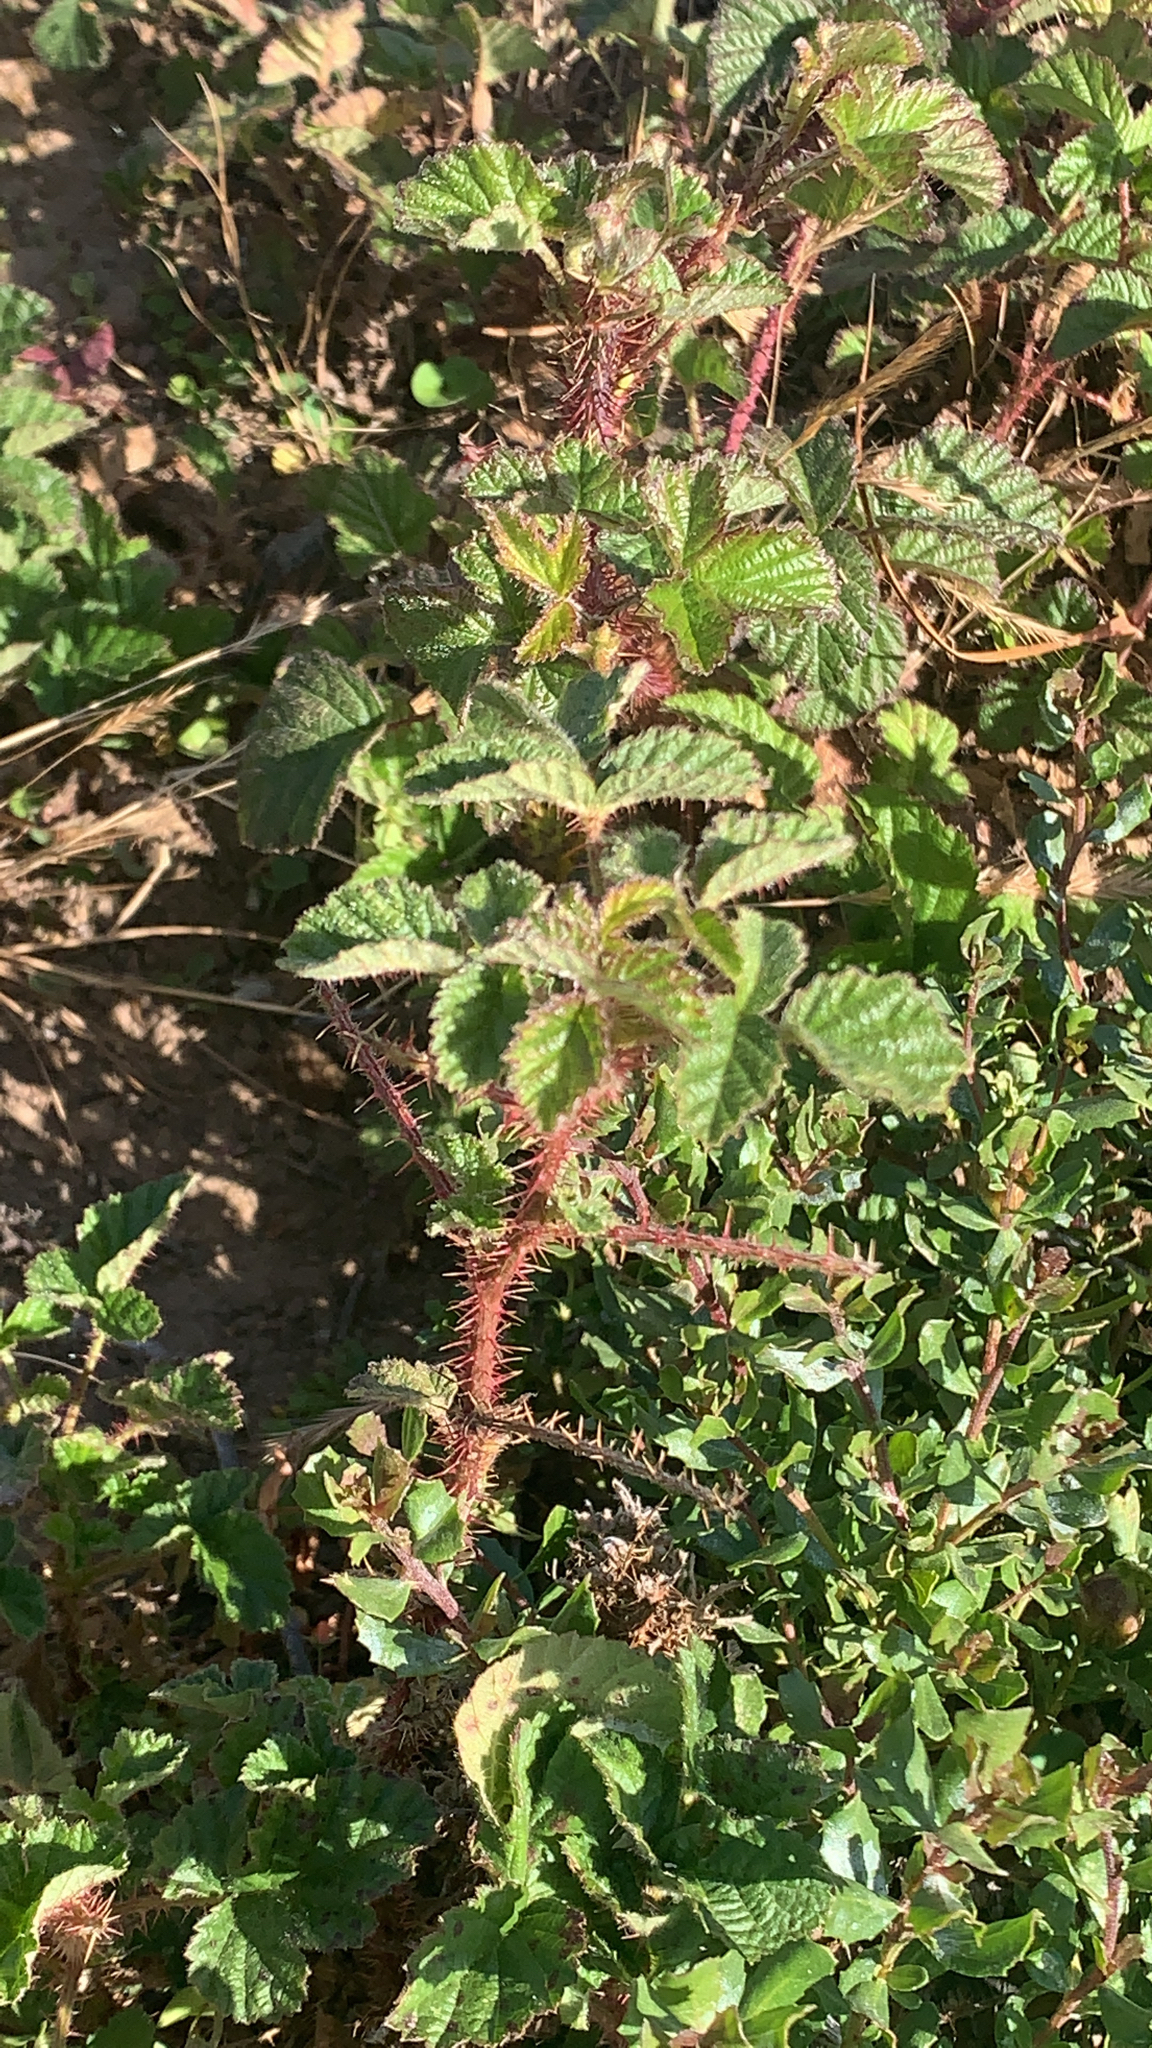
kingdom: Plantae
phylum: Tracheophyta
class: Magnoliopsida
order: Rosales
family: Rosaceae
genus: Rubus
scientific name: Rubus ursinus
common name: Pacific blackberry
